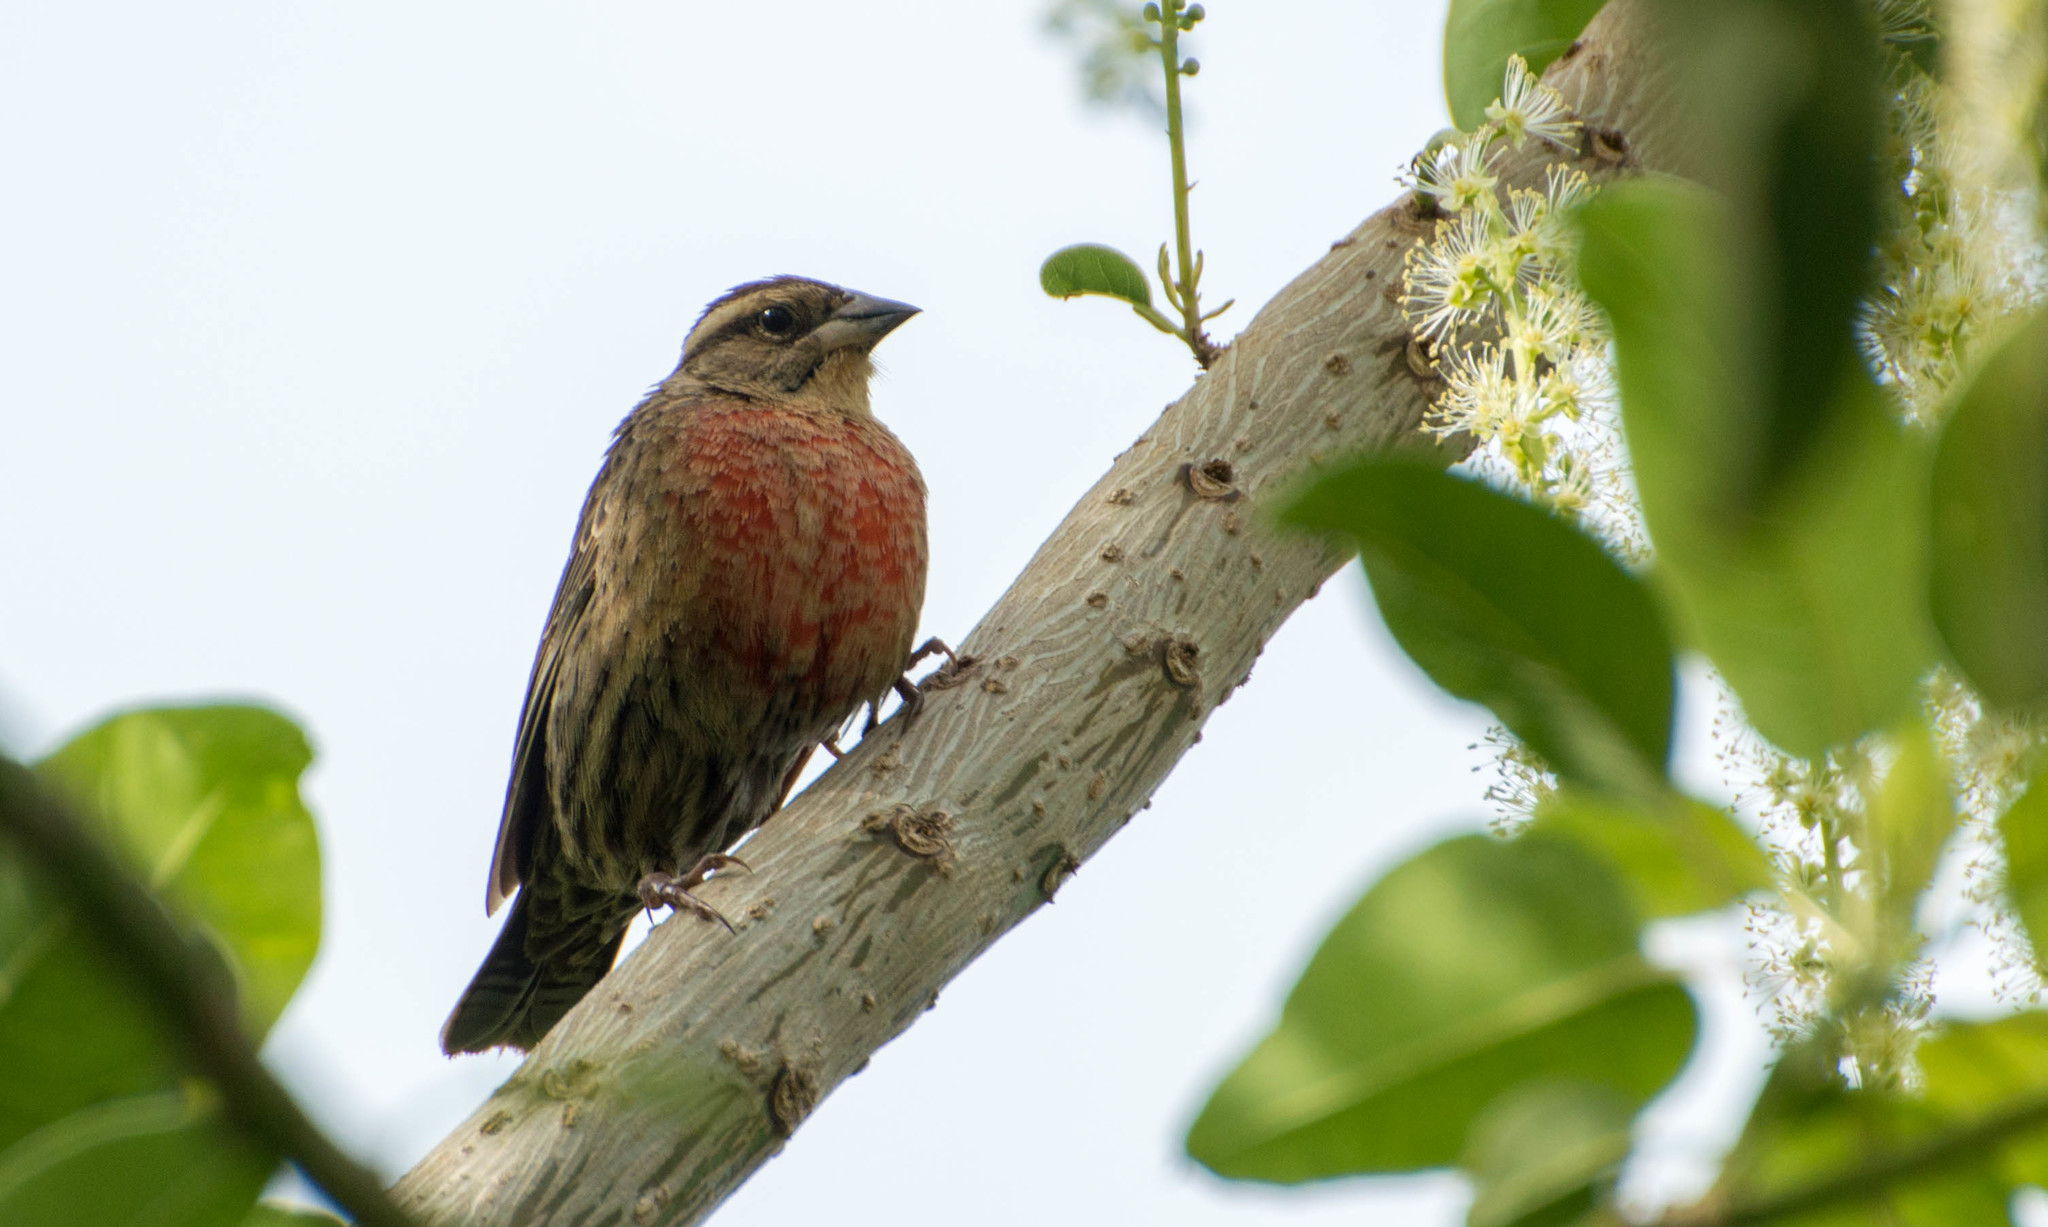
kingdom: Animalia
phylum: Chordata
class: Aves
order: Passeriformes
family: Icteridae
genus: Sturnella
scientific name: Sturnella superciliaris
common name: White-browed blackbird
